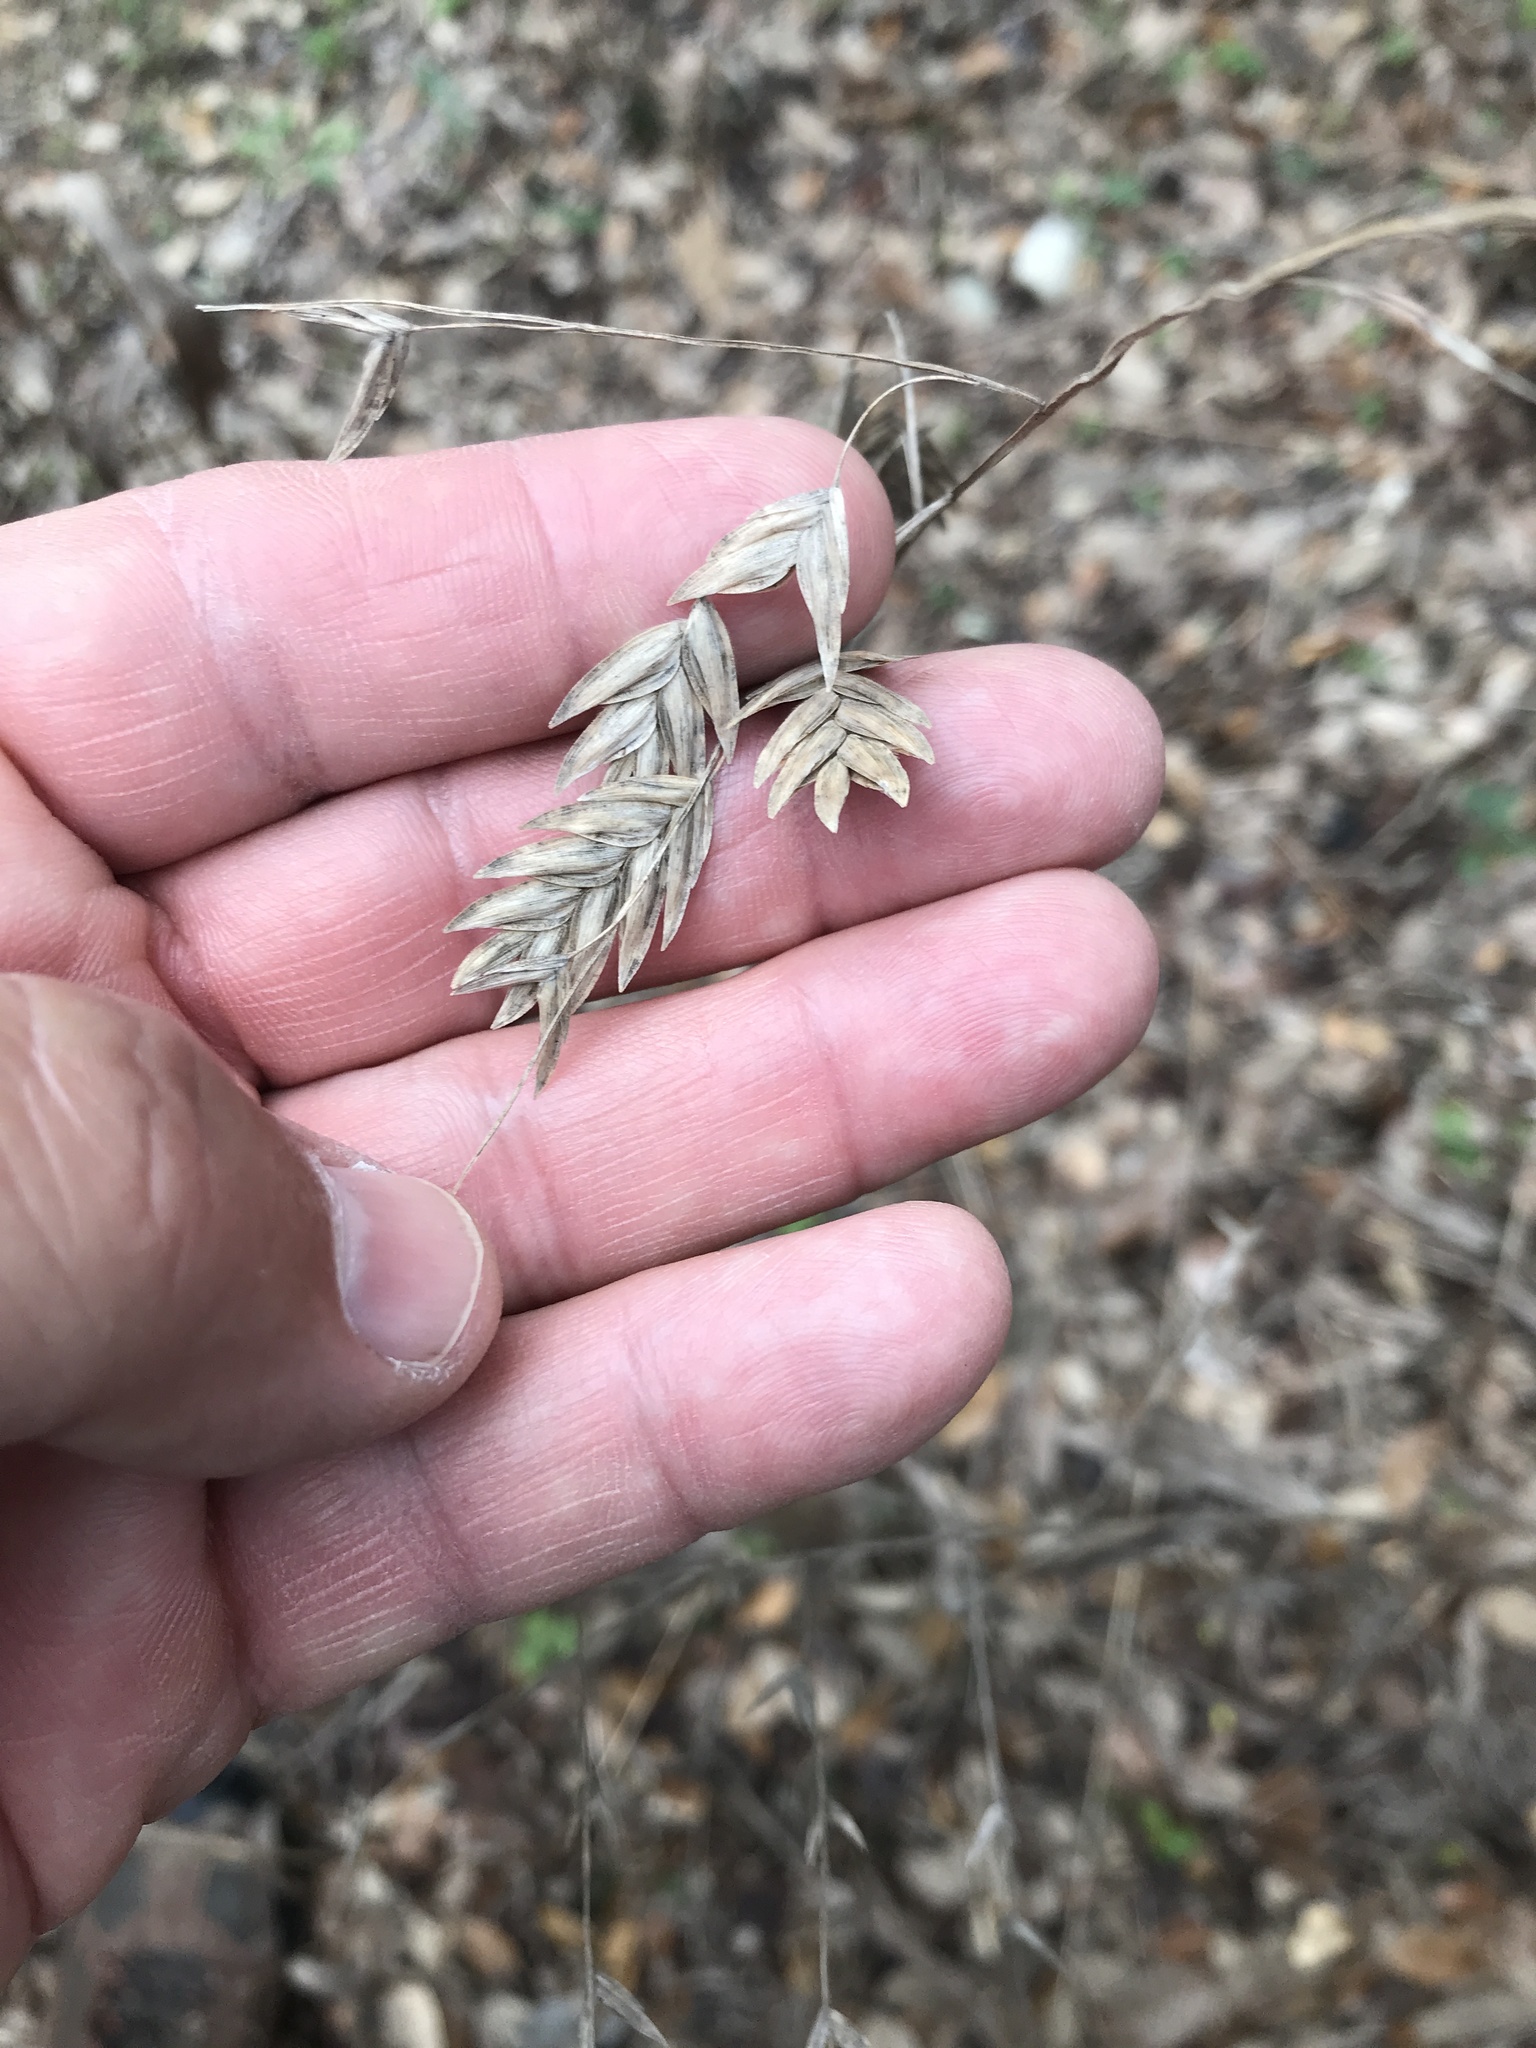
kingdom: Plantae
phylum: Tracheophyta
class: Liliopsida
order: Poales
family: Poaceae
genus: Chasmanthium
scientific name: Chasmanthium latifolium
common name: Broad-leaved chasmanthium
